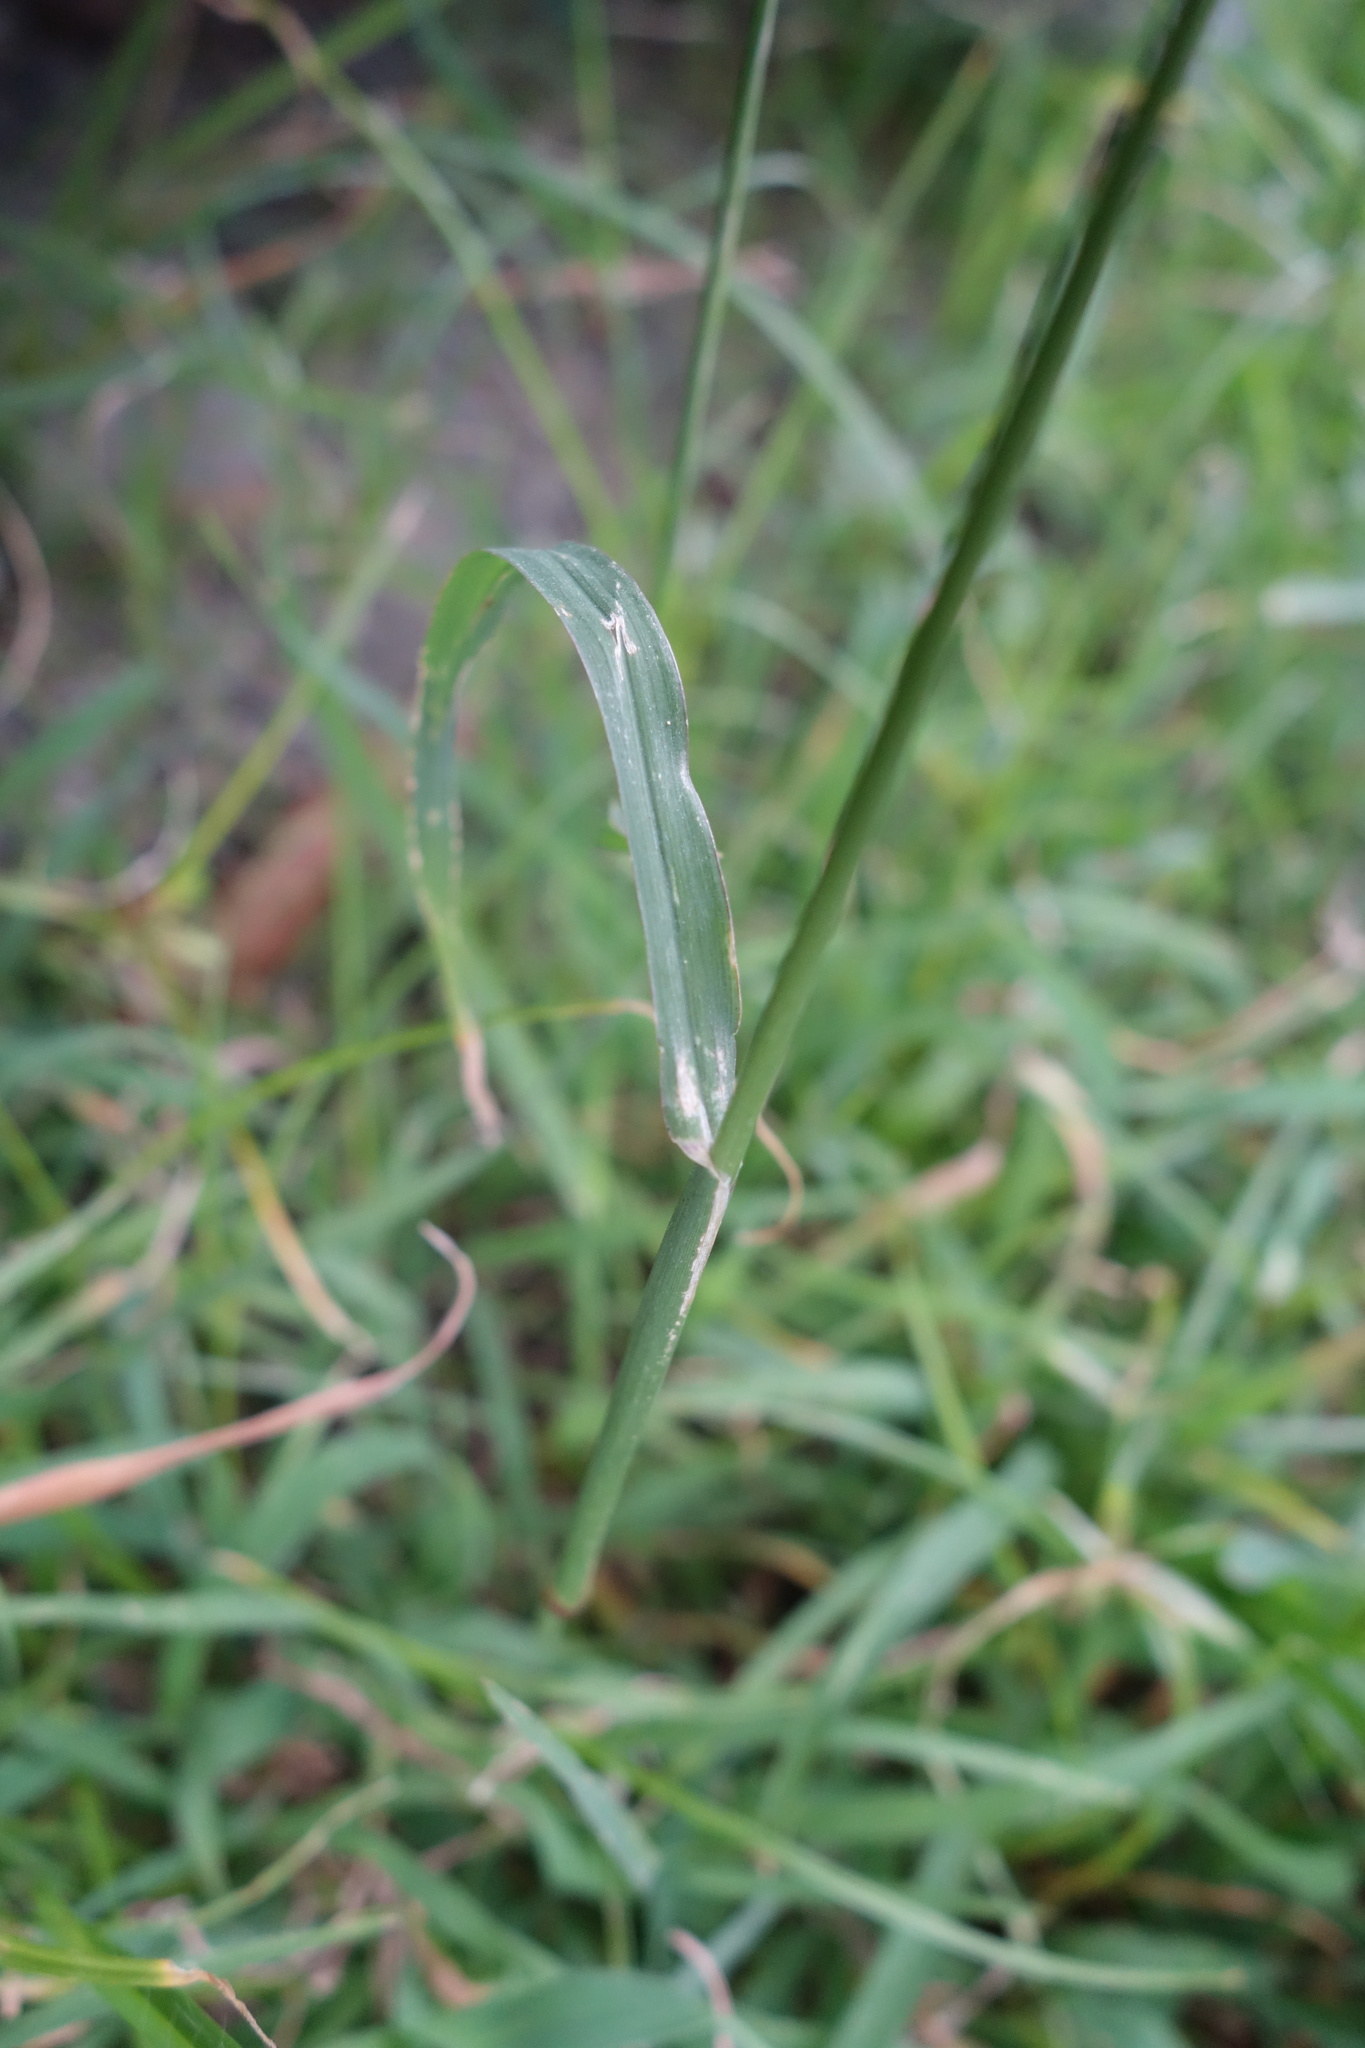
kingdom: Plantae
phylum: Tracheophyta
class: Liliopsida
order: Poales
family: Poaceae
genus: Chloris
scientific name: Chloris barbata
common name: Swollen fingergrass
